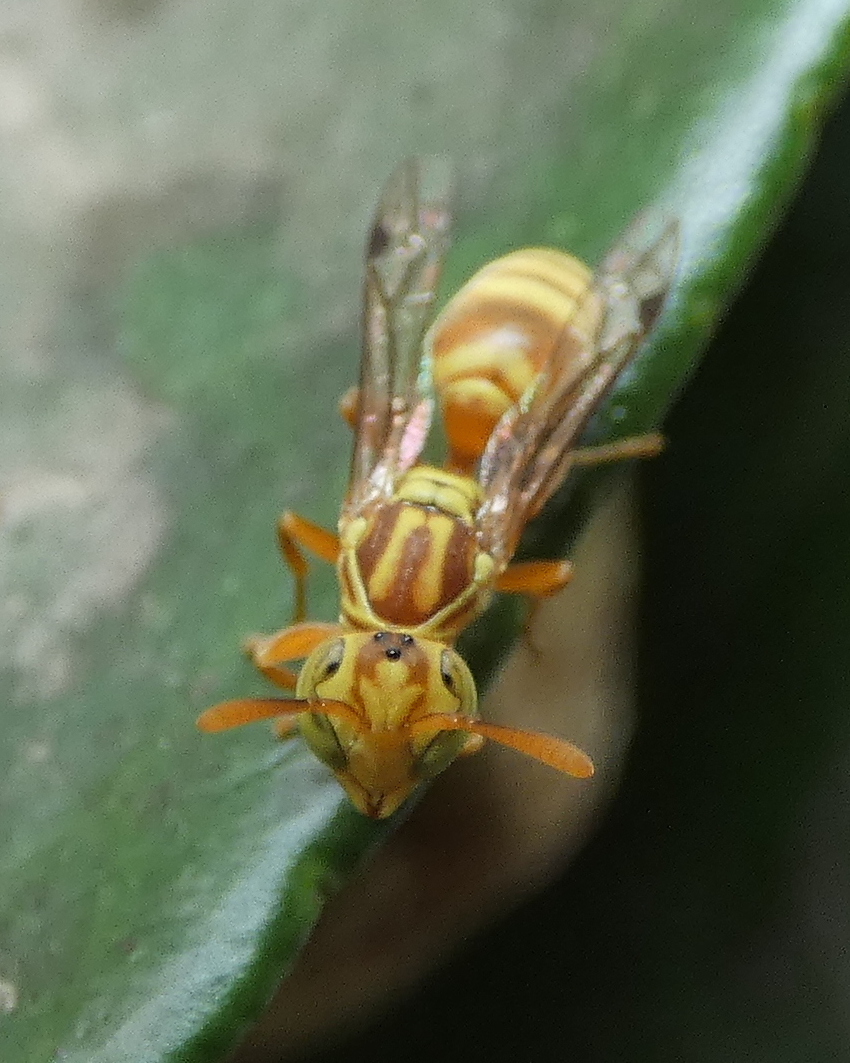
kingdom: Animalia
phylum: Arthropoda
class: Insecta
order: Hymenoptera
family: Vespidae
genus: Protopolybia
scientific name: Protopolybia potiguara
